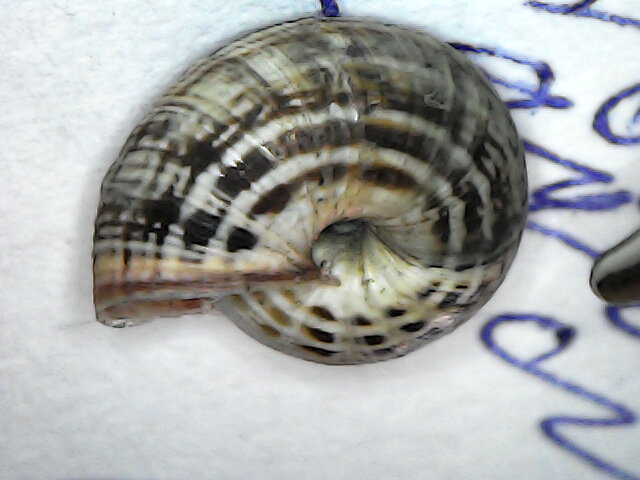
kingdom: Animalia
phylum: Mollusca
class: Gastropoda
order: Stylommatophora
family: Geomitridae
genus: Cernuella
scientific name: Cernuella virgata
